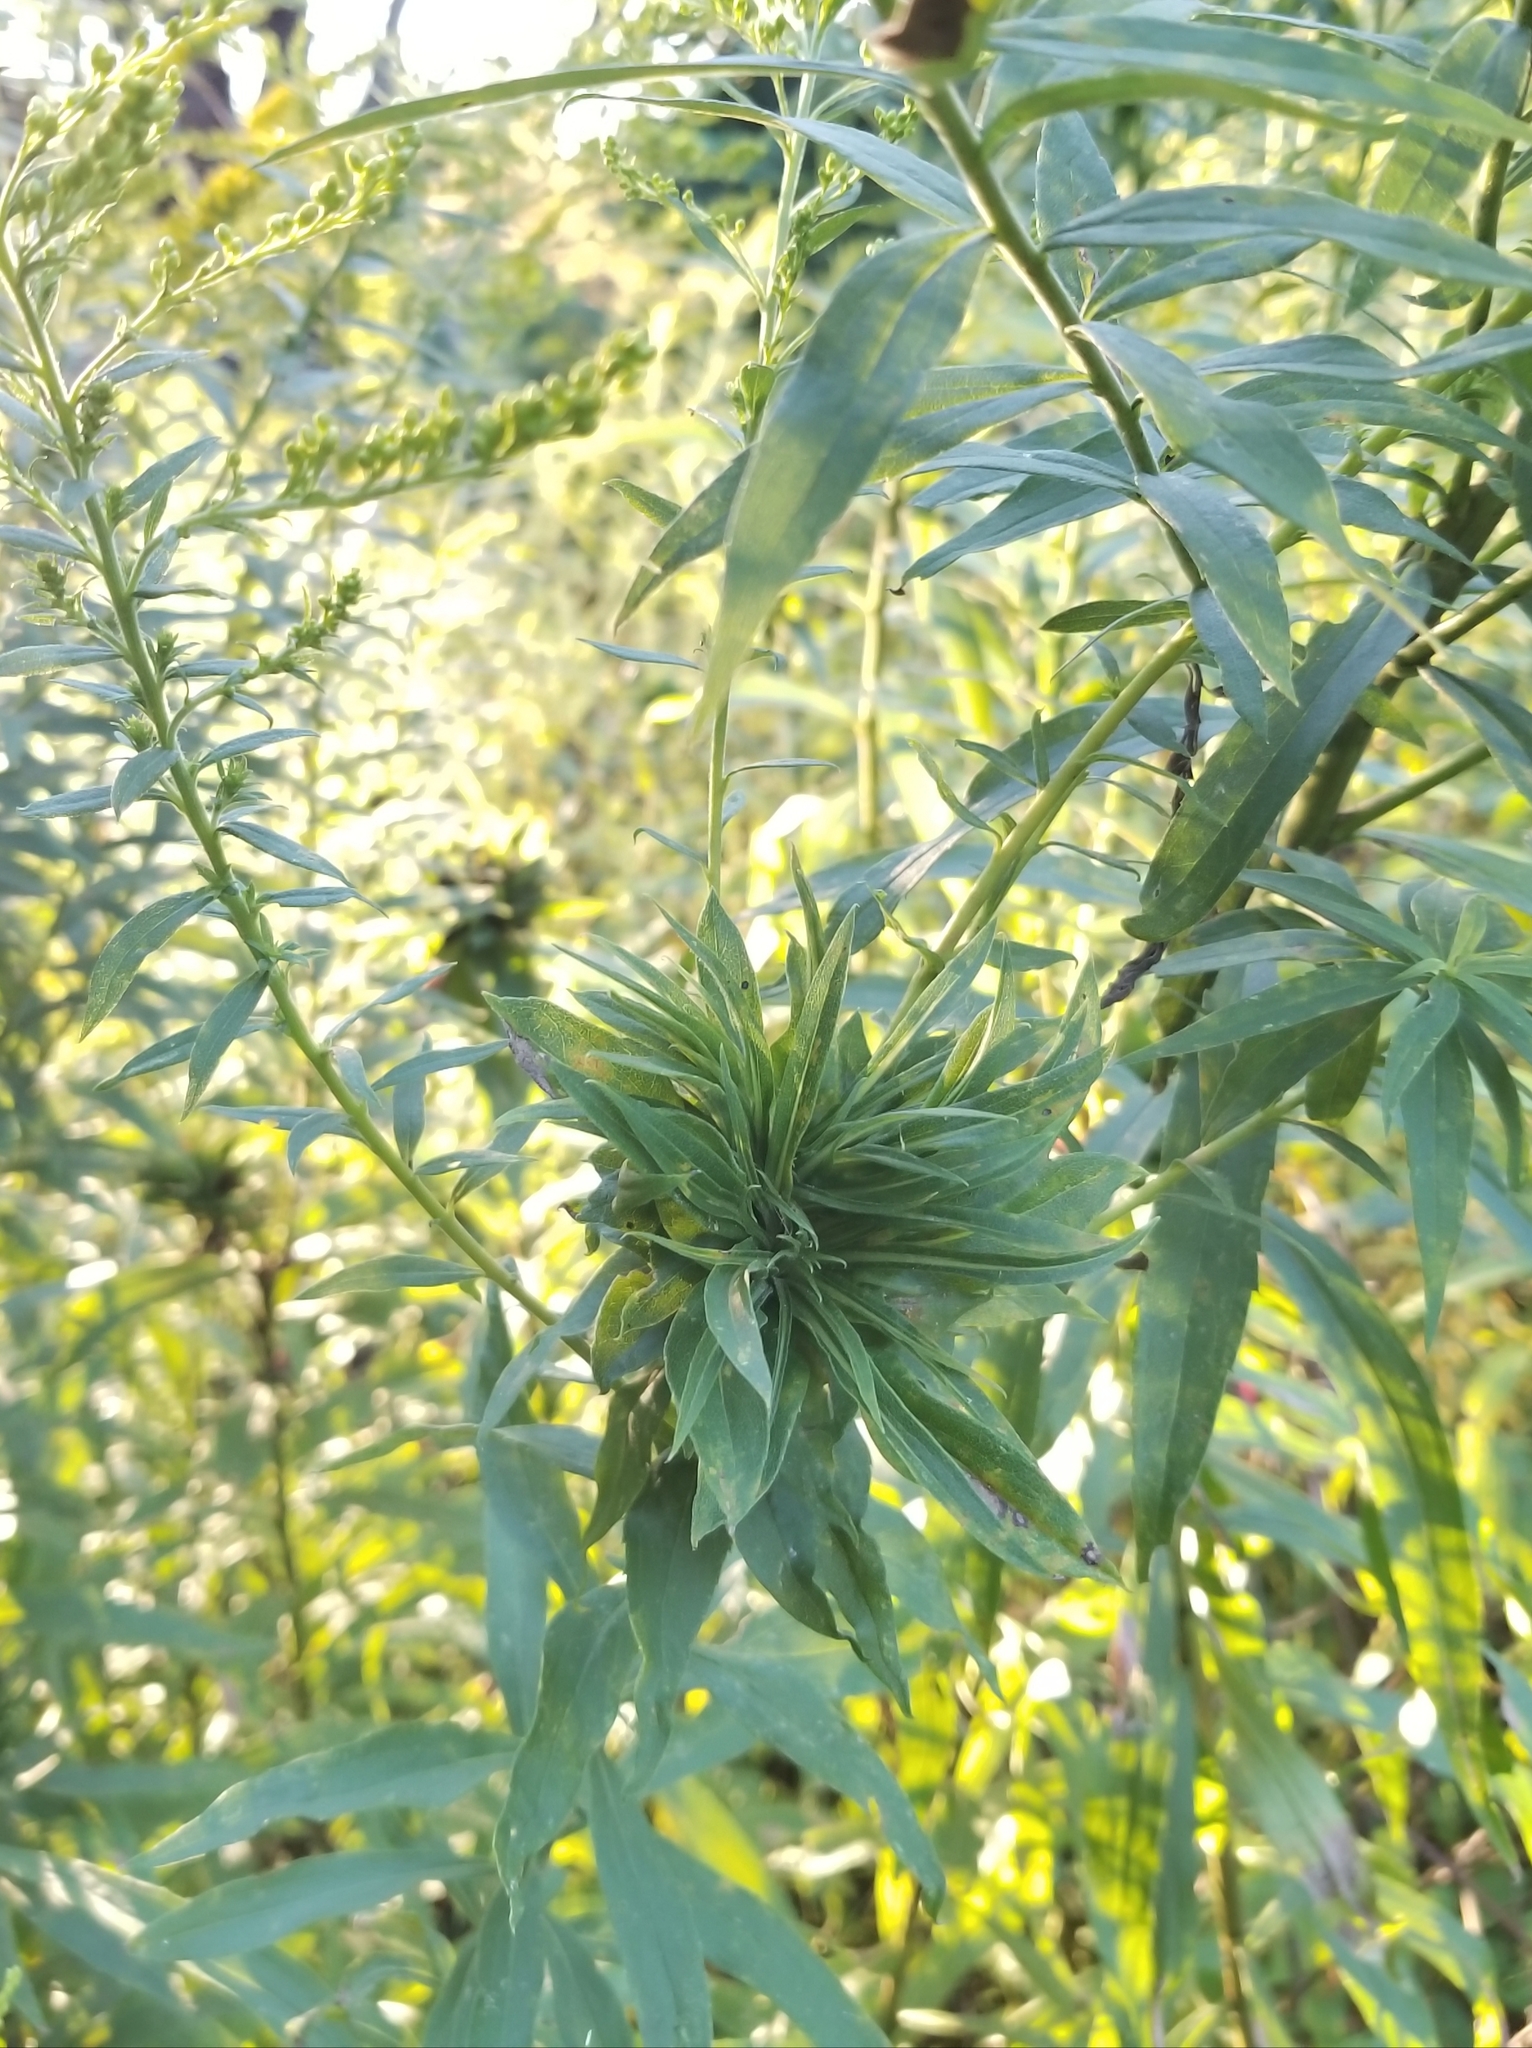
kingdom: Animalia
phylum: Arthropoda
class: Insecta
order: Diptera
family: Cecidomyiidae
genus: Rhopalomyia
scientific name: Rhopalomyia solidaginis
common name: Goldenrod bunch gall midge
